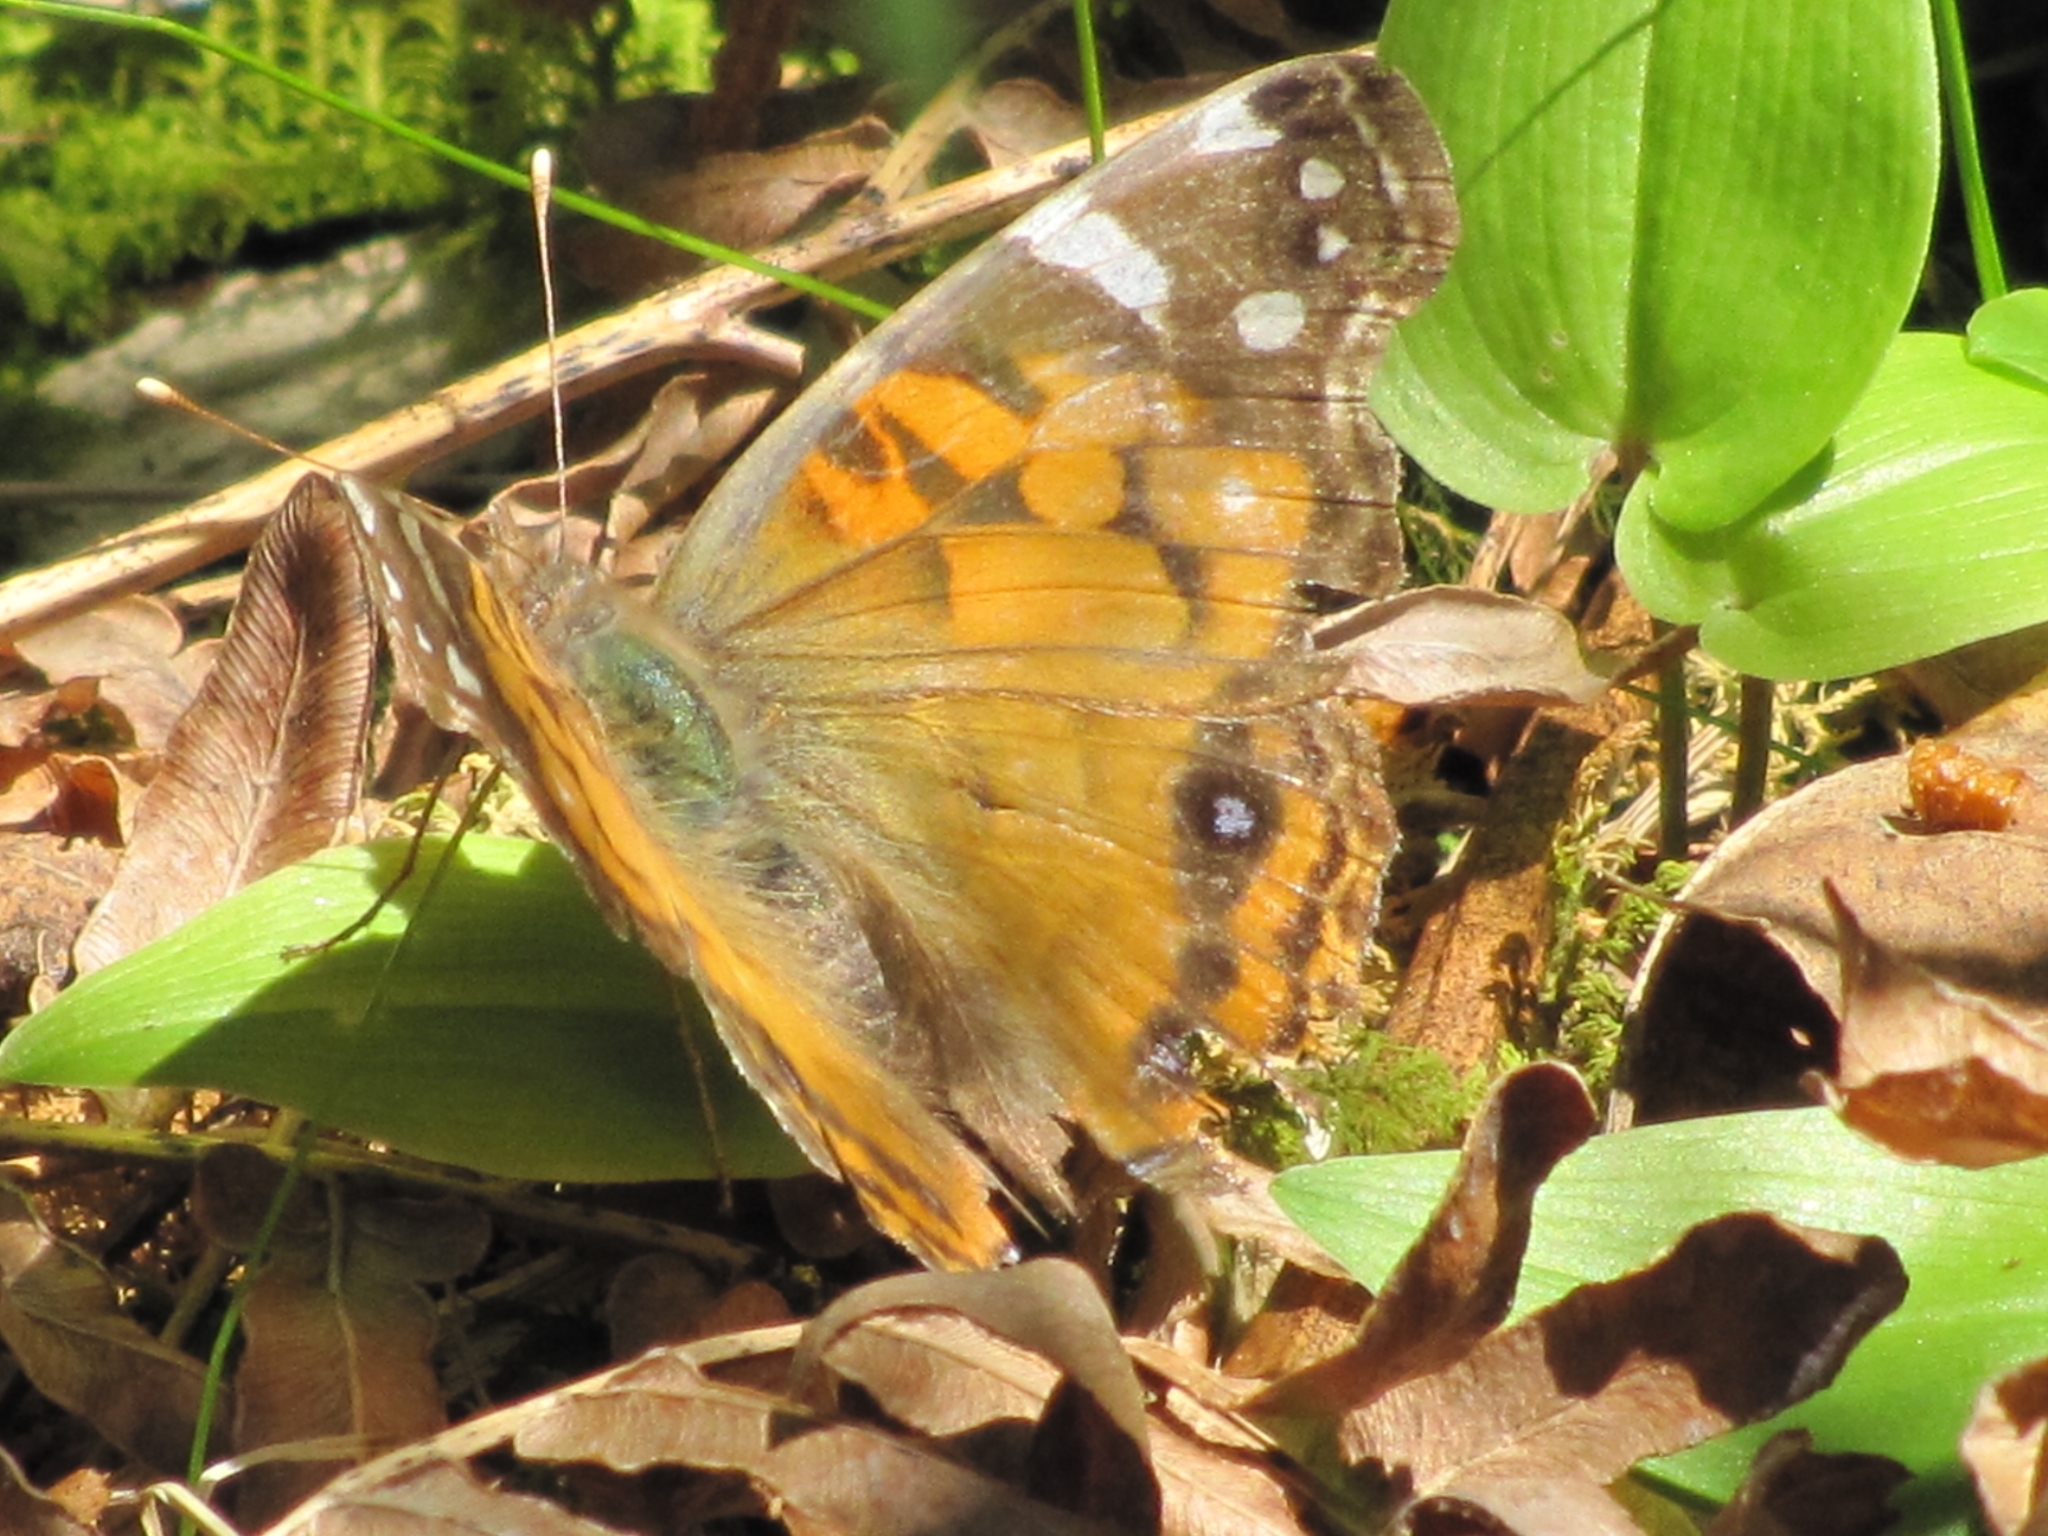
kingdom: Animalia
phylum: Arthropoda
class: Insecta
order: Lepidoptera
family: Nymphalidae
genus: Vanessa
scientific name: Vanessa virginiensis
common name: American lady
